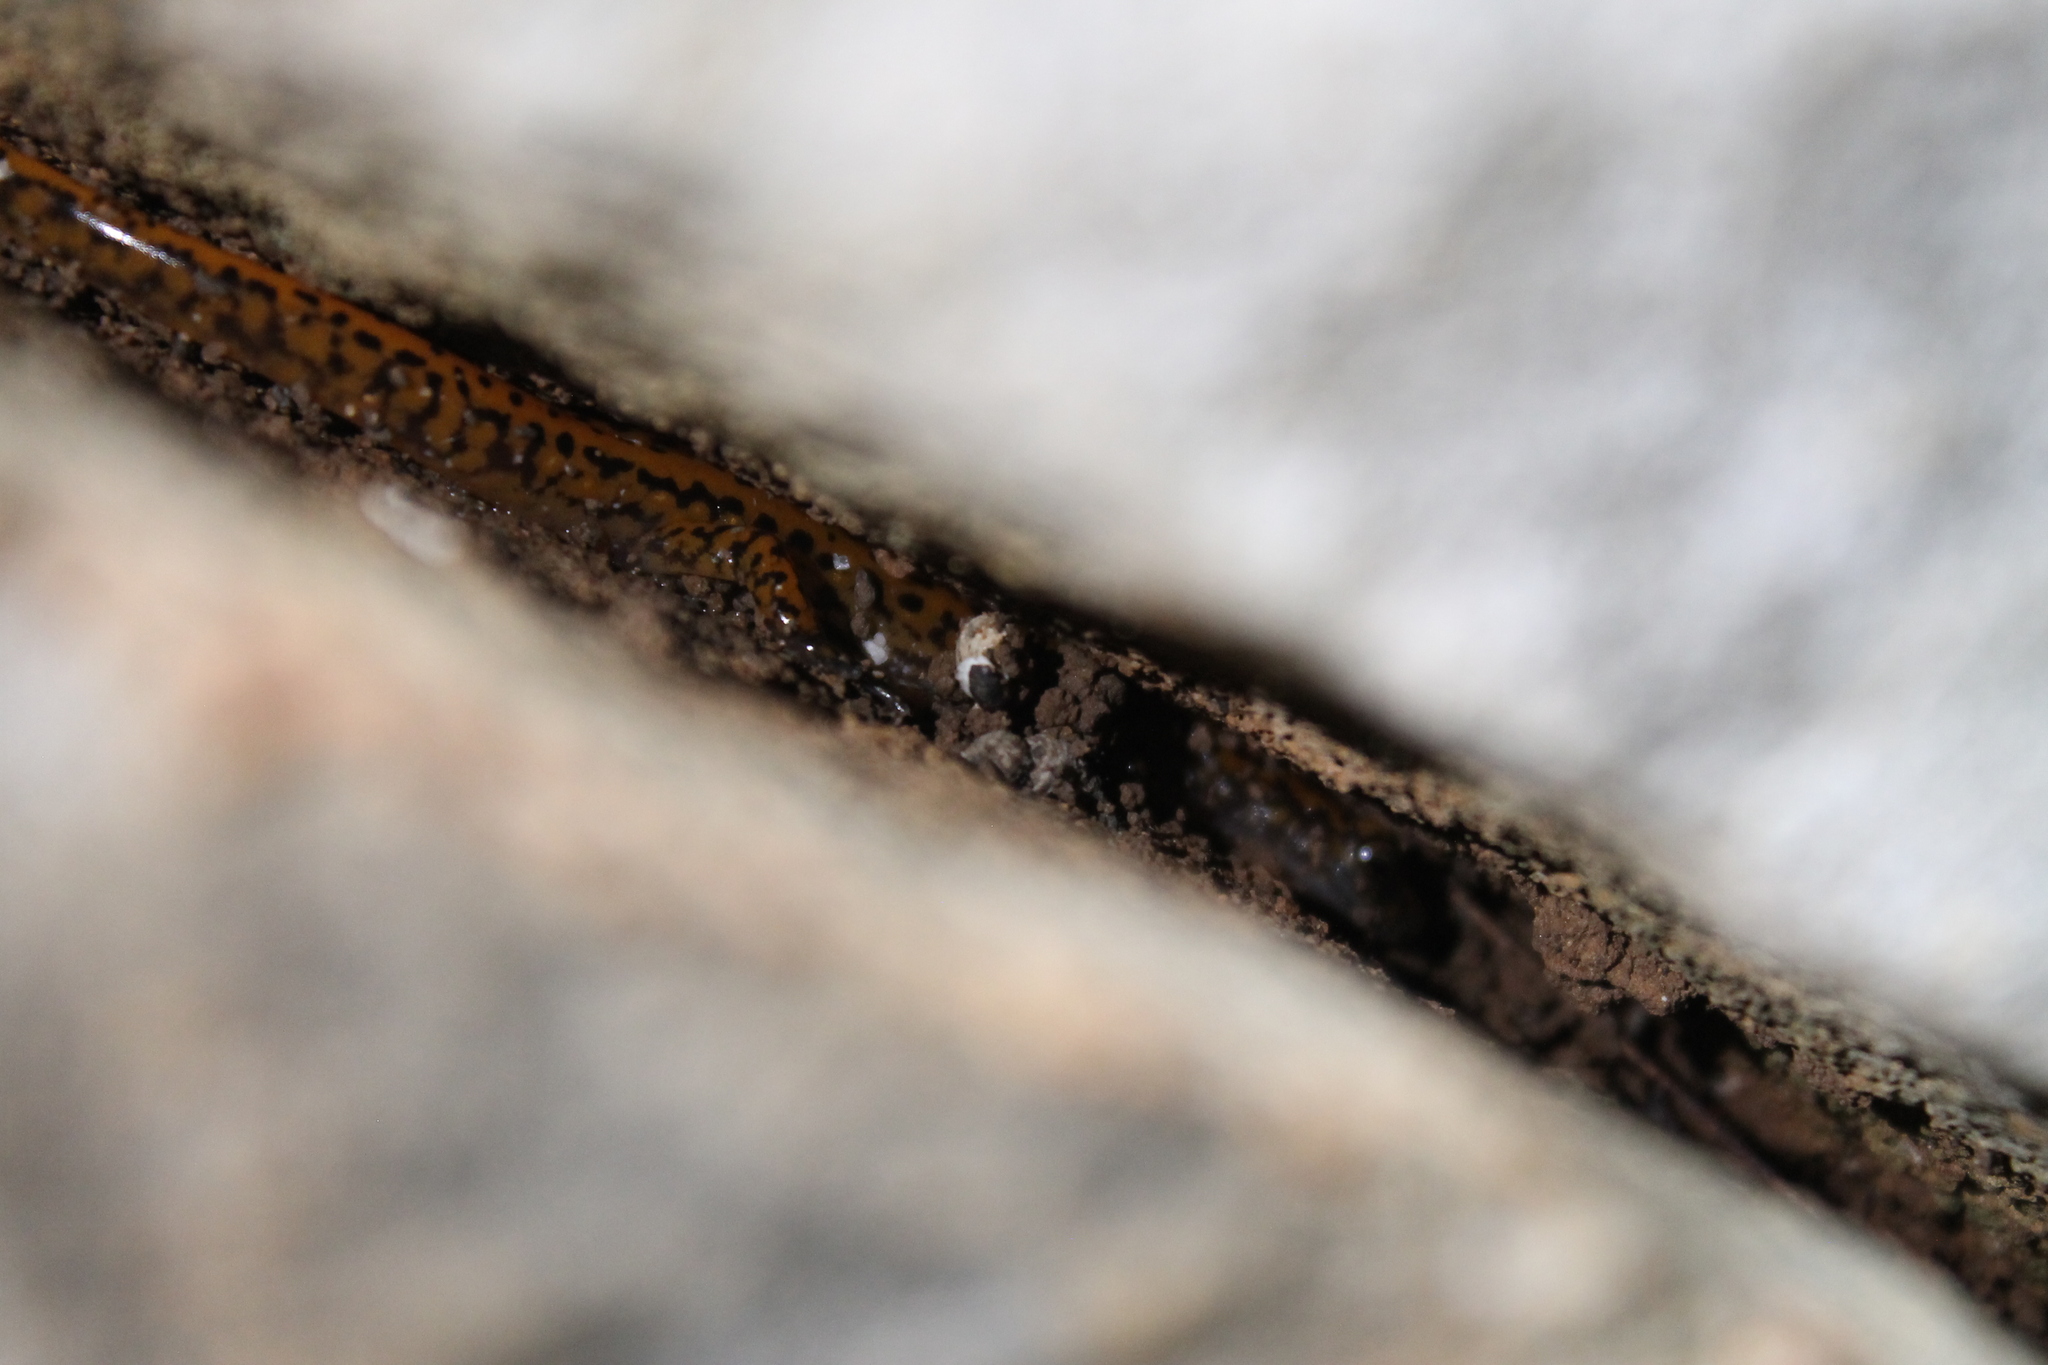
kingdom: Animalia
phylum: Chordata
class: Amphibia
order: Caudata
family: Plethodontidae
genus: Eurycea
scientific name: Eurycea lucifuga
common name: Cave salamander
